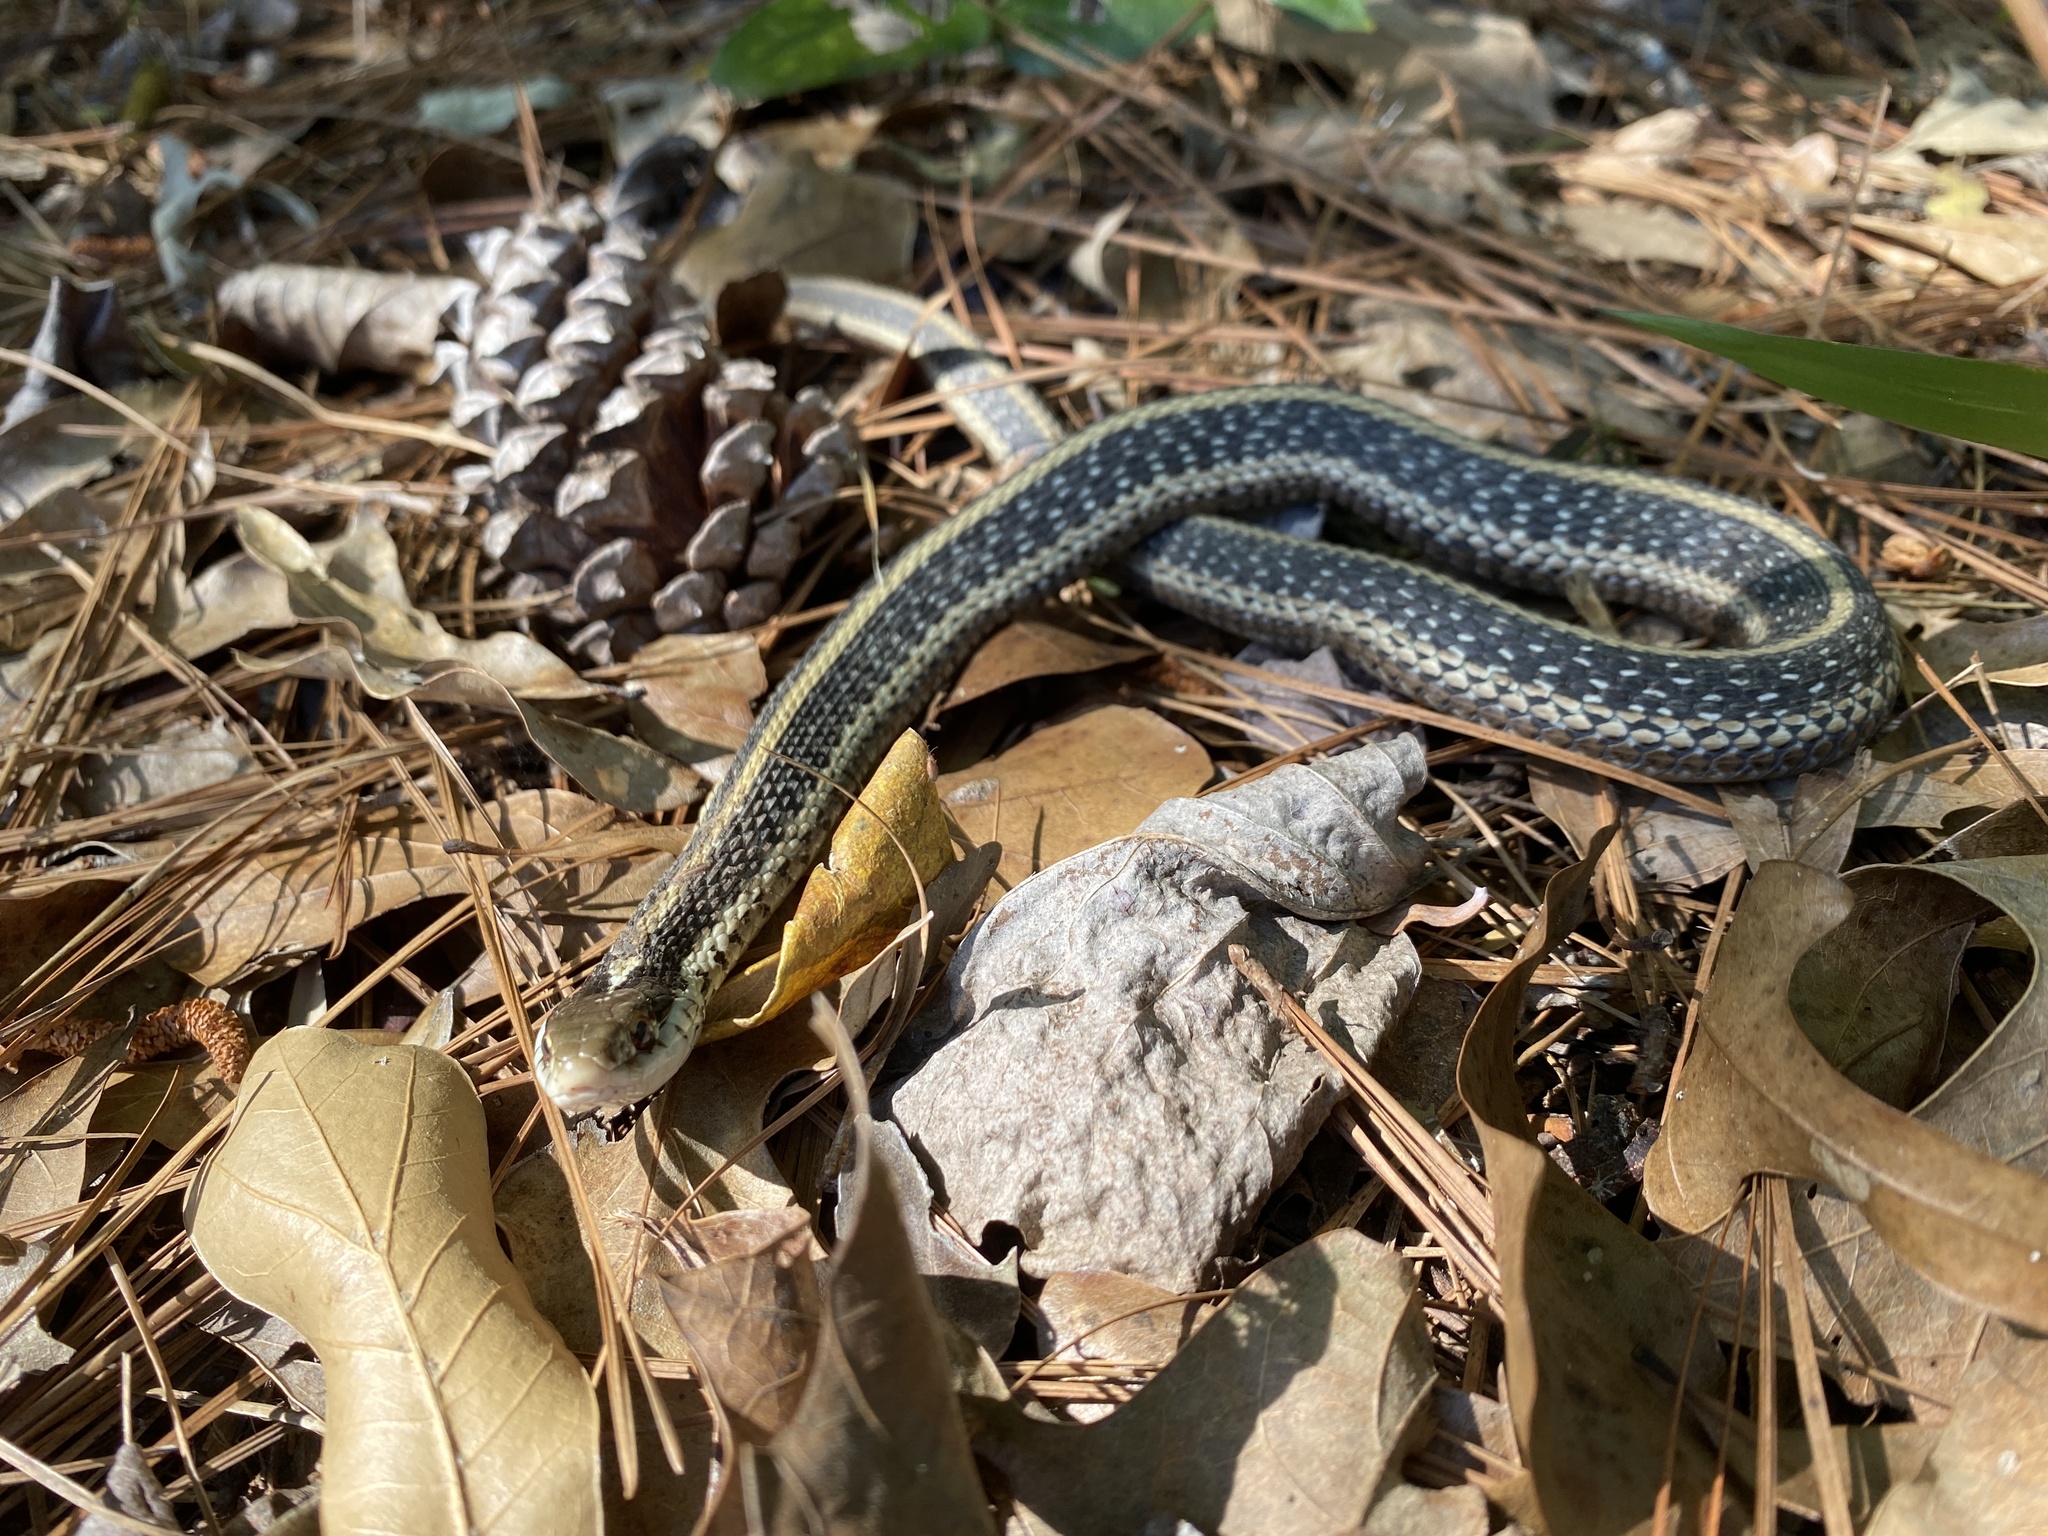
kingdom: Animalia
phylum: Chordata
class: Squamata
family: Colubridae
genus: Thamnophis
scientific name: Thamnophis sirtalis
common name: Common garter snake
